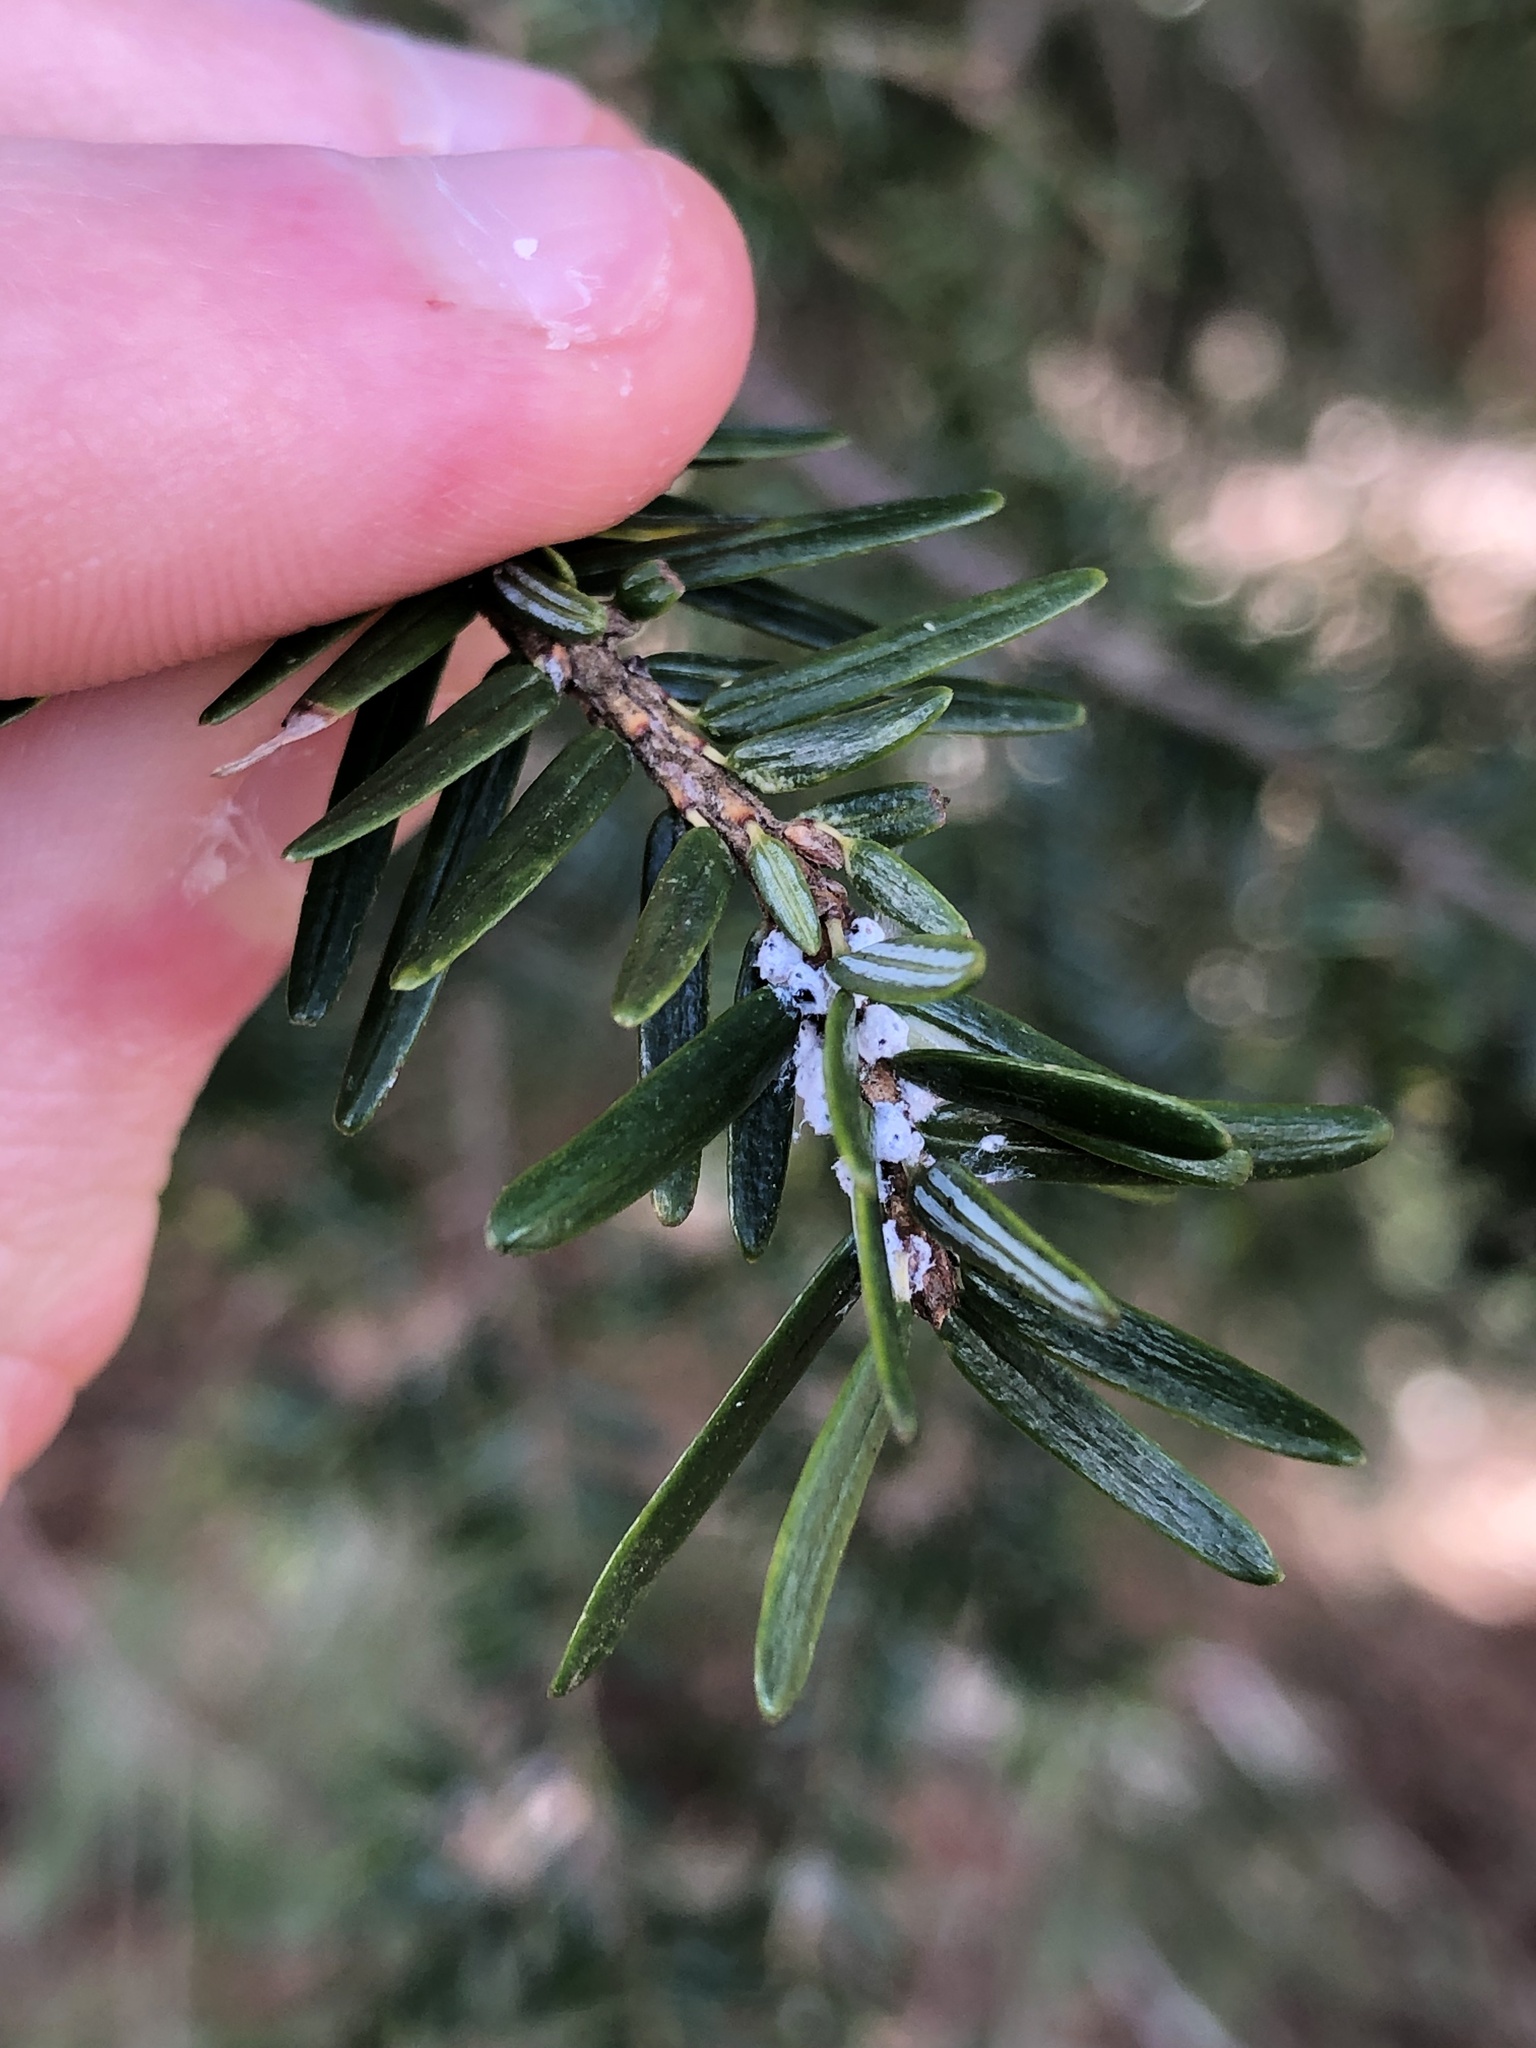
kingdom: Animalia
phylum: Arthropoda
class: Insecta
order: Hemiptera
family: Adelgidae
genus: Adelges
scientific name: Adelges tsugae
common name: Hemlock woolly adelgid
